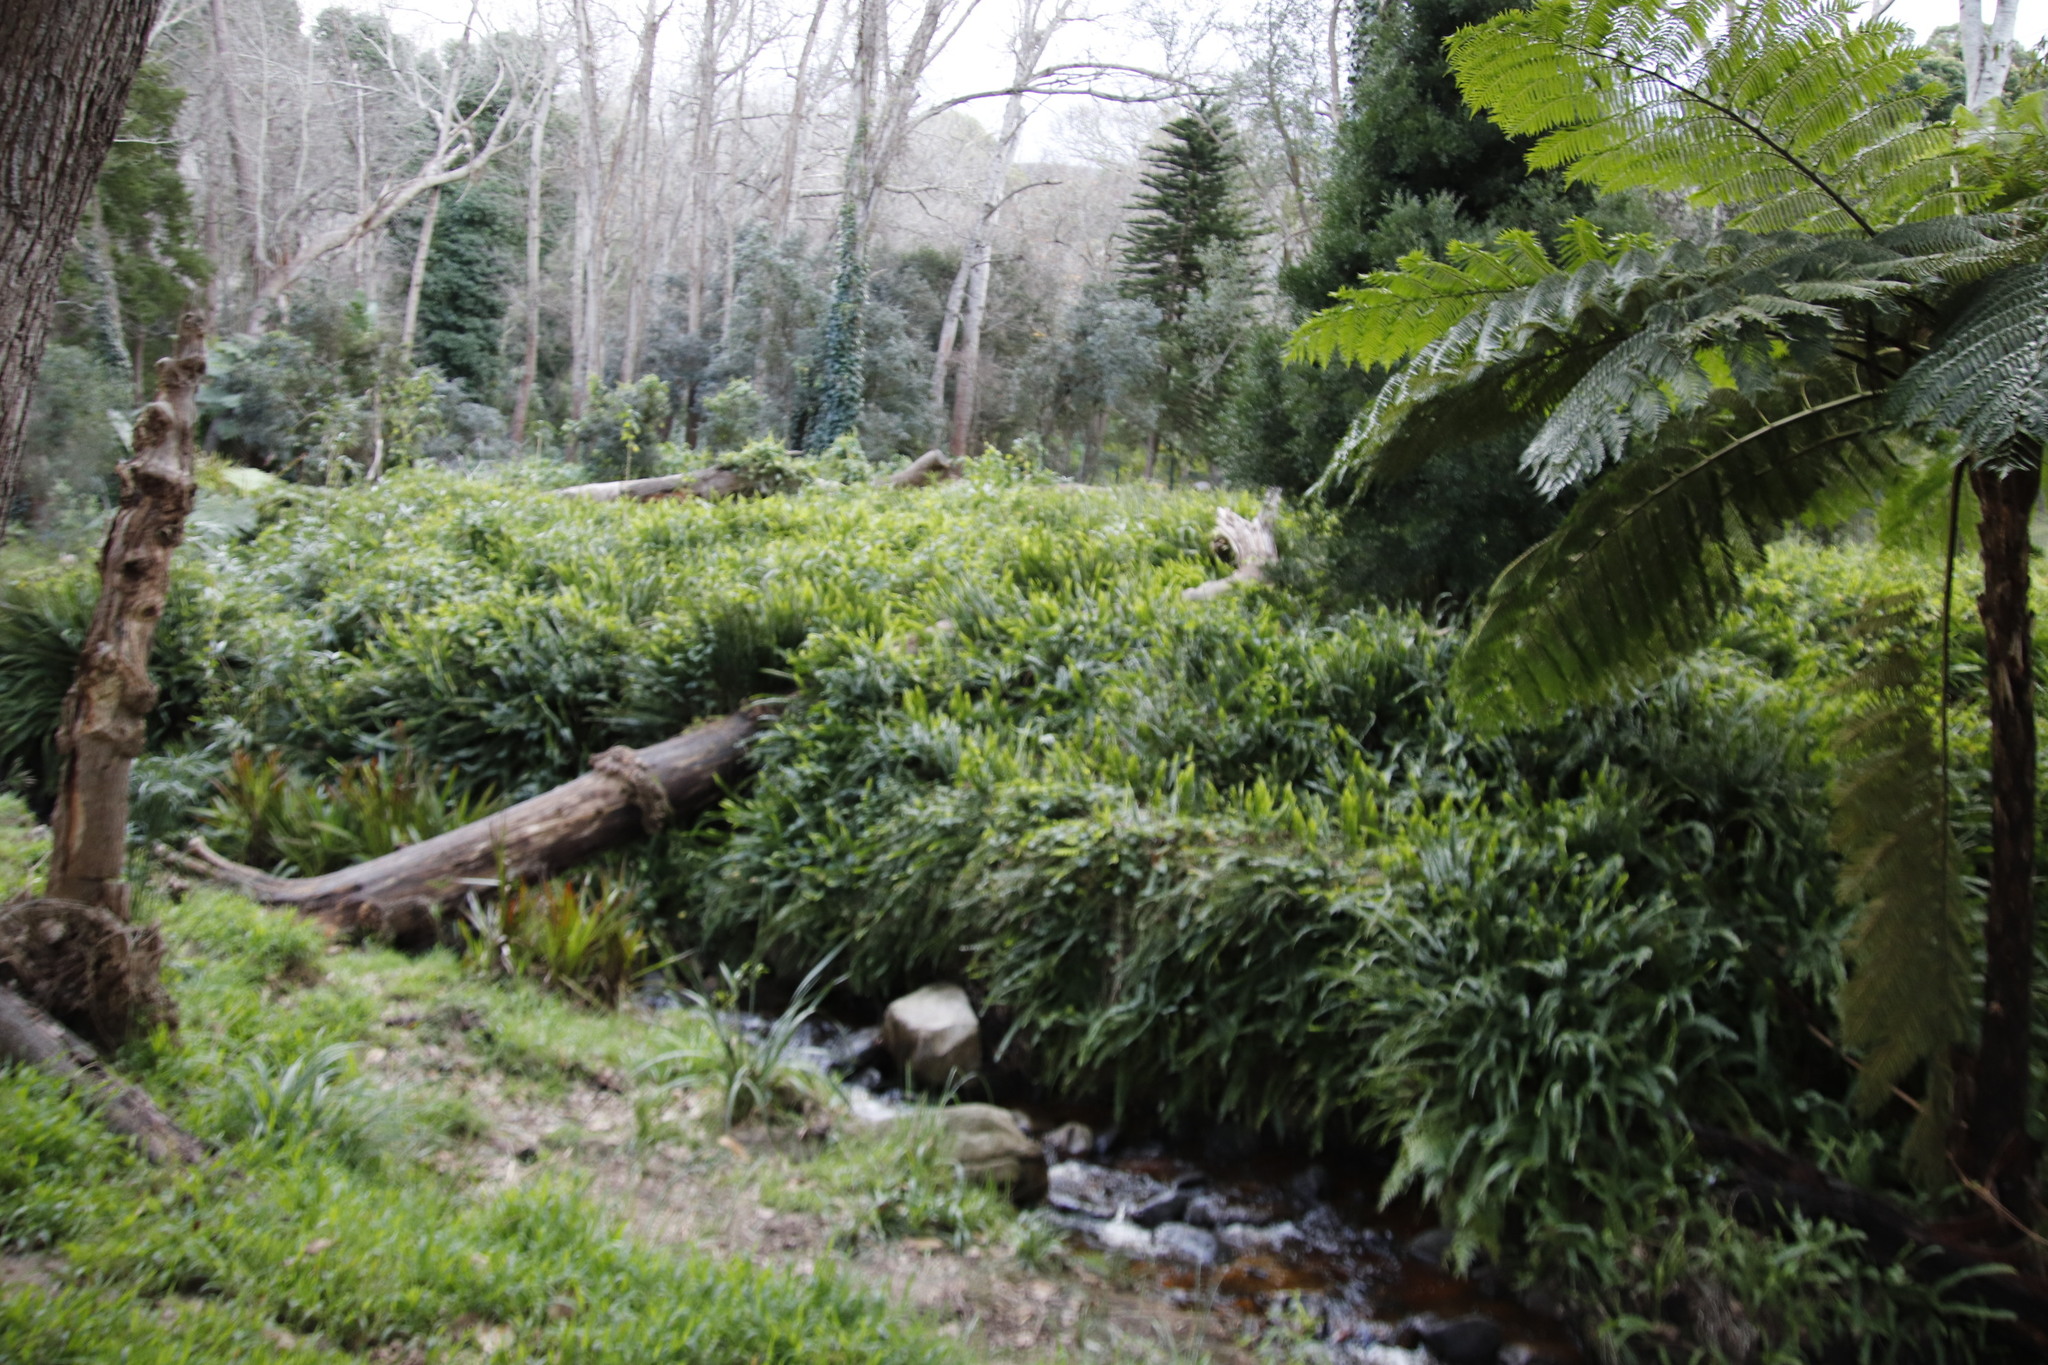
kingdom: Plantae
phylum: Tracheophyta
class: Polypodiopsida
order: Polypodiales
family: Nephrolepidaceae
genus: Nephrolepis
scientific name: Nephrolepis cordifolia
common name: Narrow swordfern
